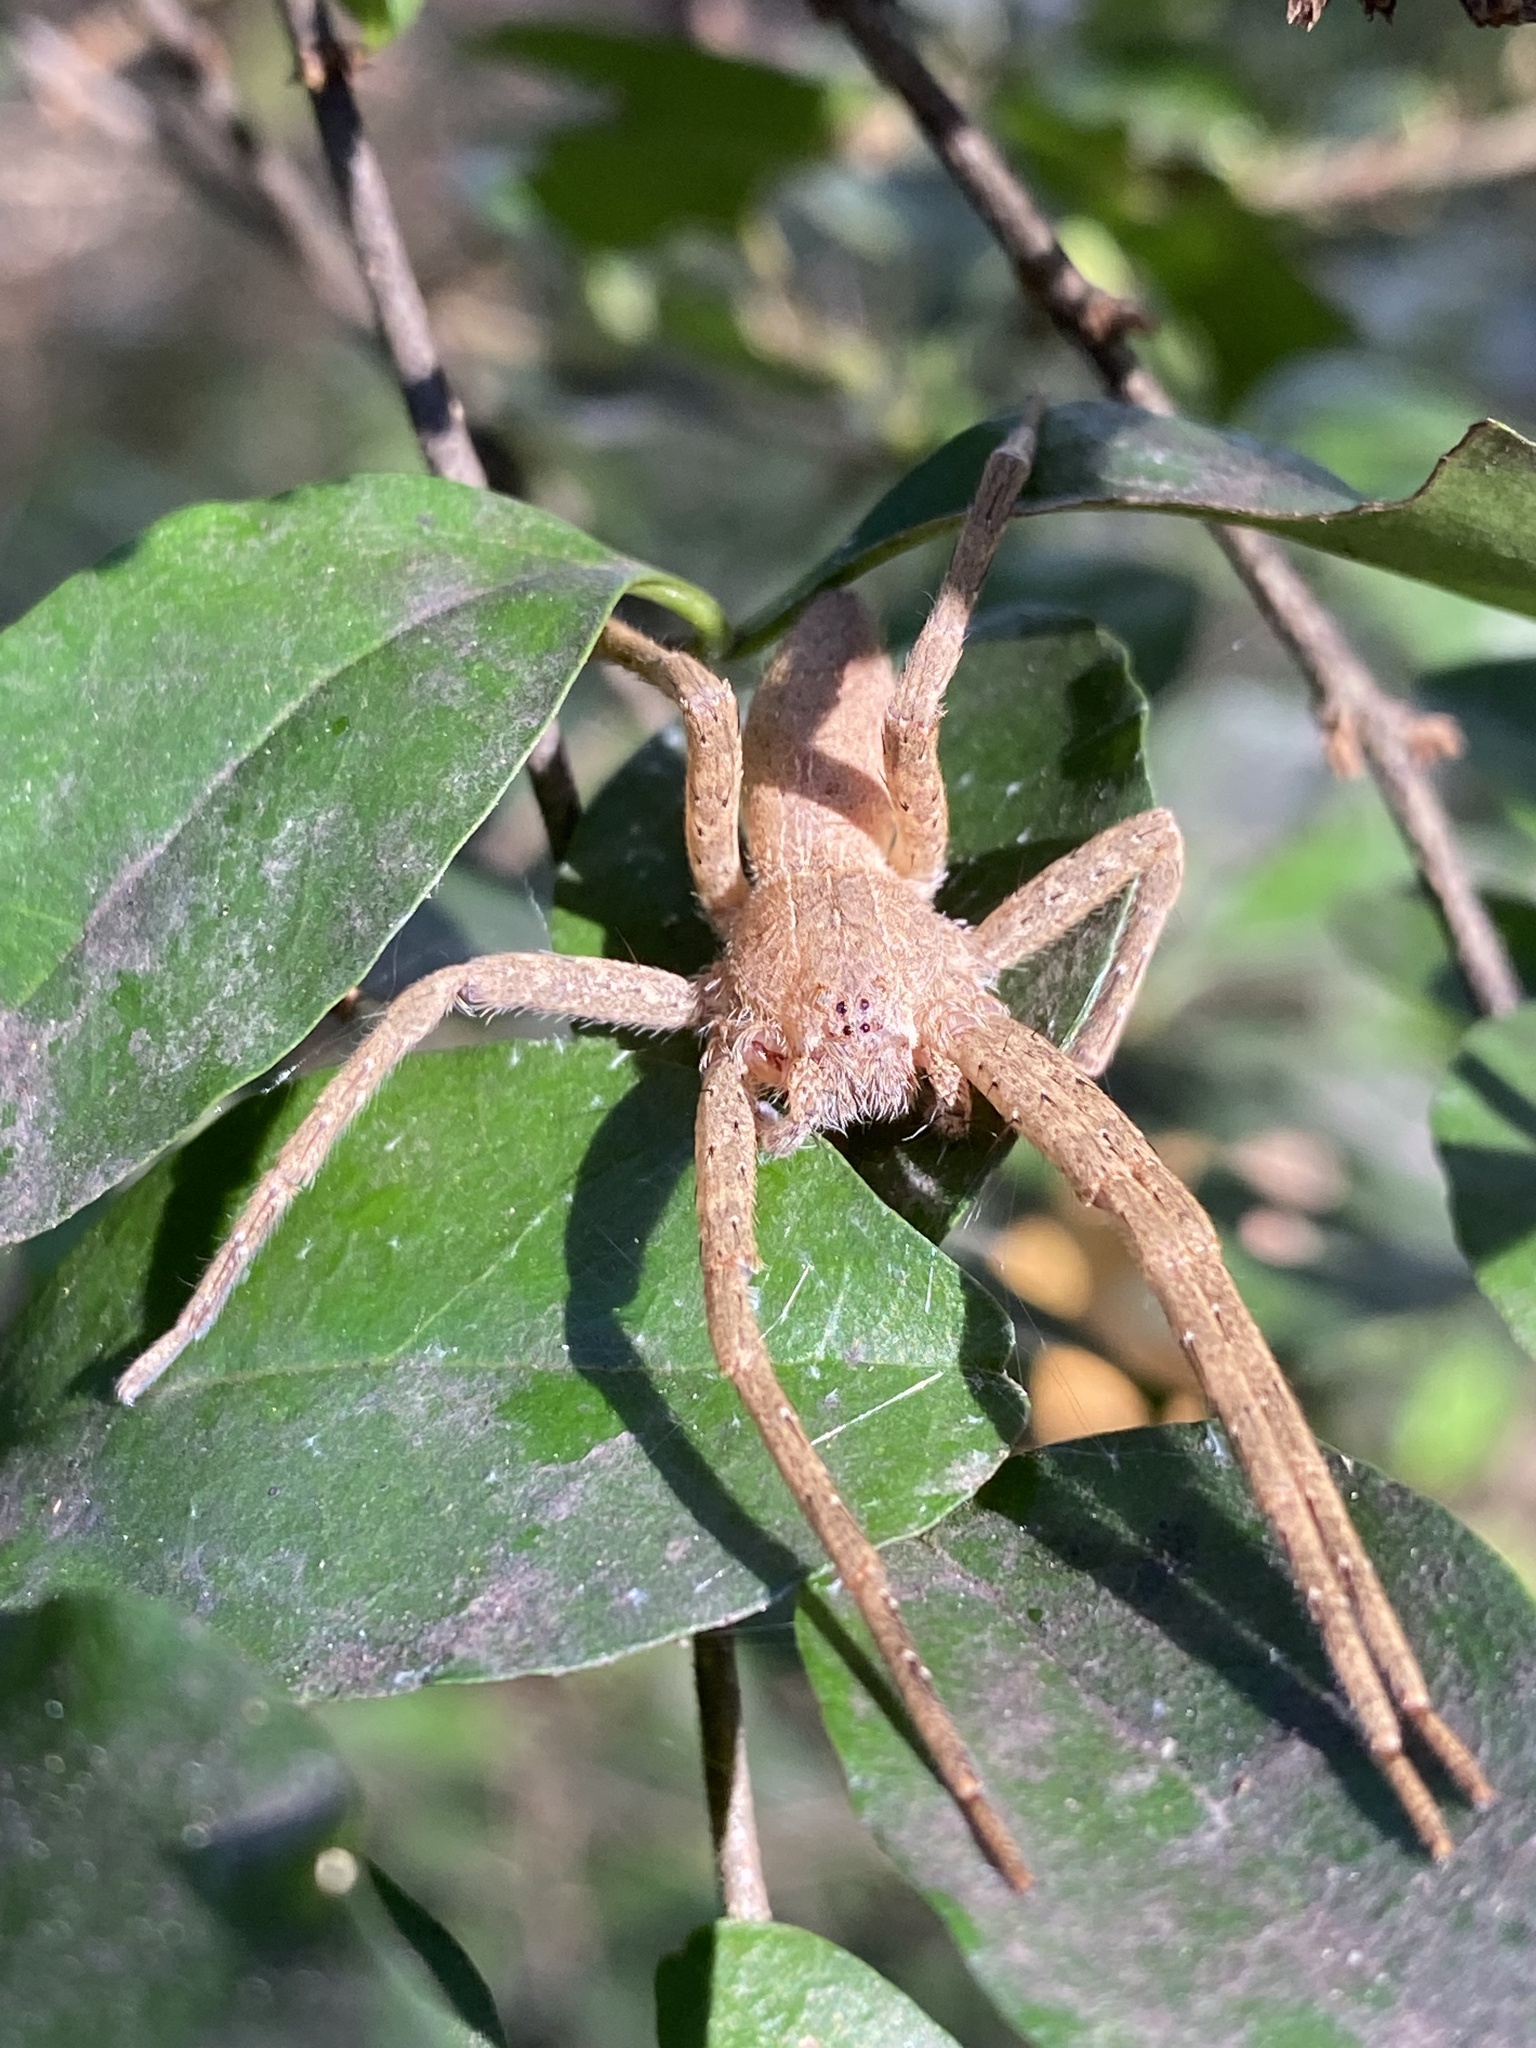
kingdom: Animalia
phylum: Arthropoda
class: Arachnida
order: Araneae
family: Pisauridae
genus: Pisaurina
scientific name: Pisaurina mira
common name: American nursery web spider
